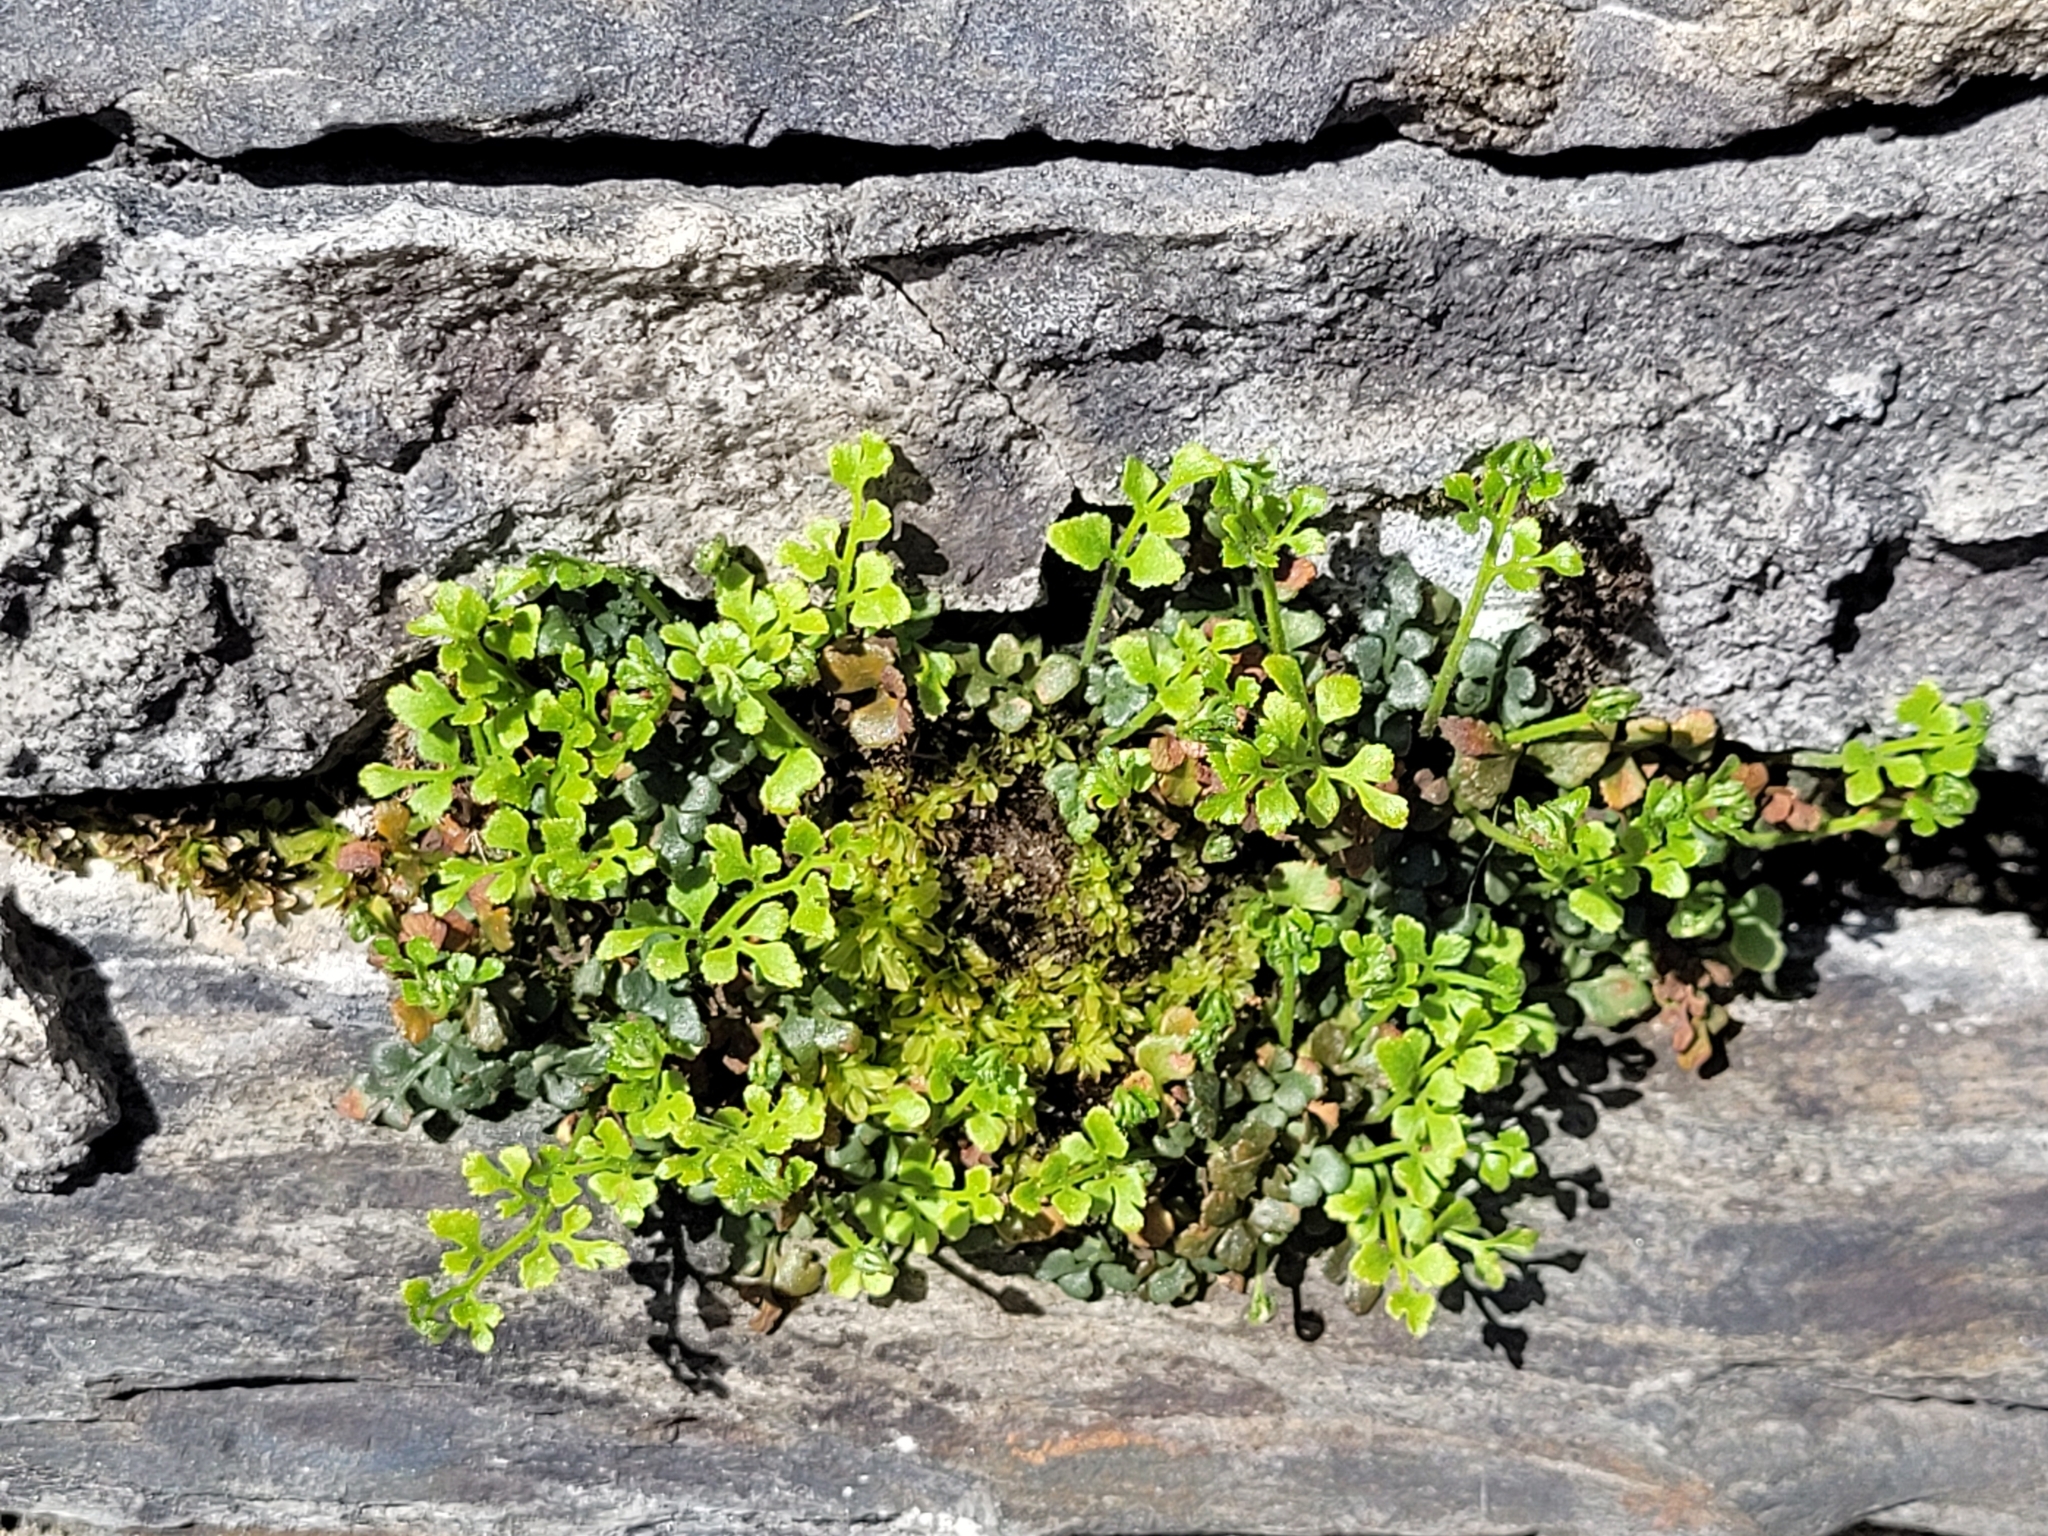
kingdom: Plantae
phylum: Tracheophyta
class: Polypodiopsida
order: Polypodiales
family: Aspleniaceae
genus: Asplenium
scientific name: Asplenium ruta-muraria
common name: Wall-rue
